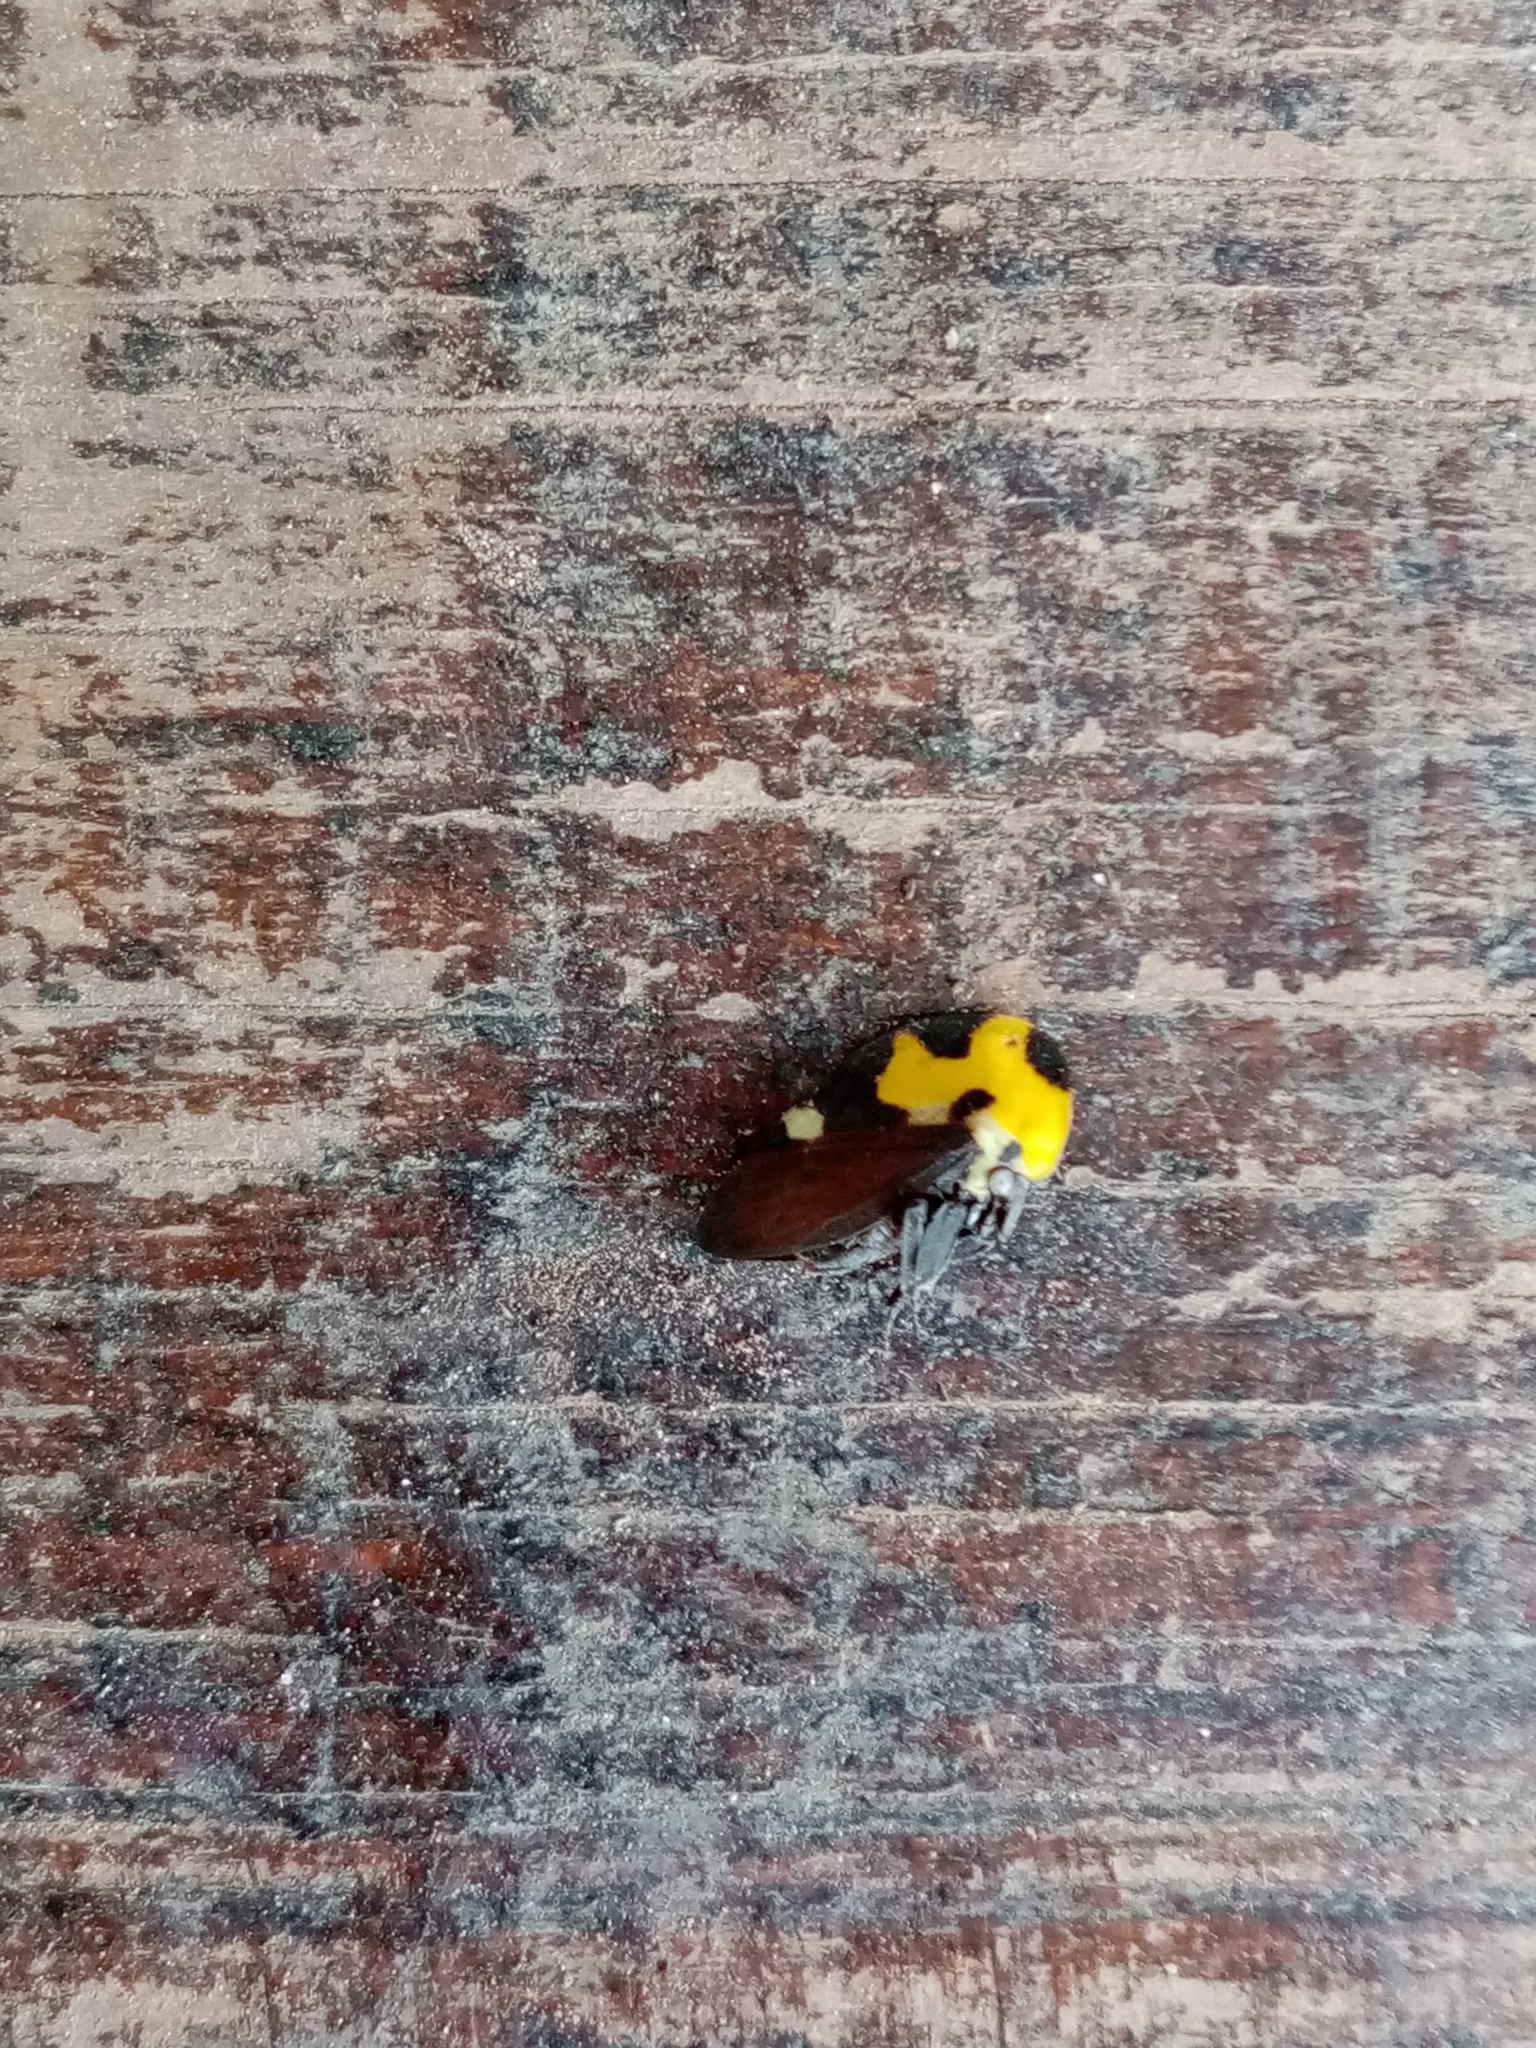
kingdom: Animalia
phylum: Arthropoda
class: Insecta
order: Hemiptera
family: Membracidae
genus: Membracis
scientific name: Membracis mexicana
